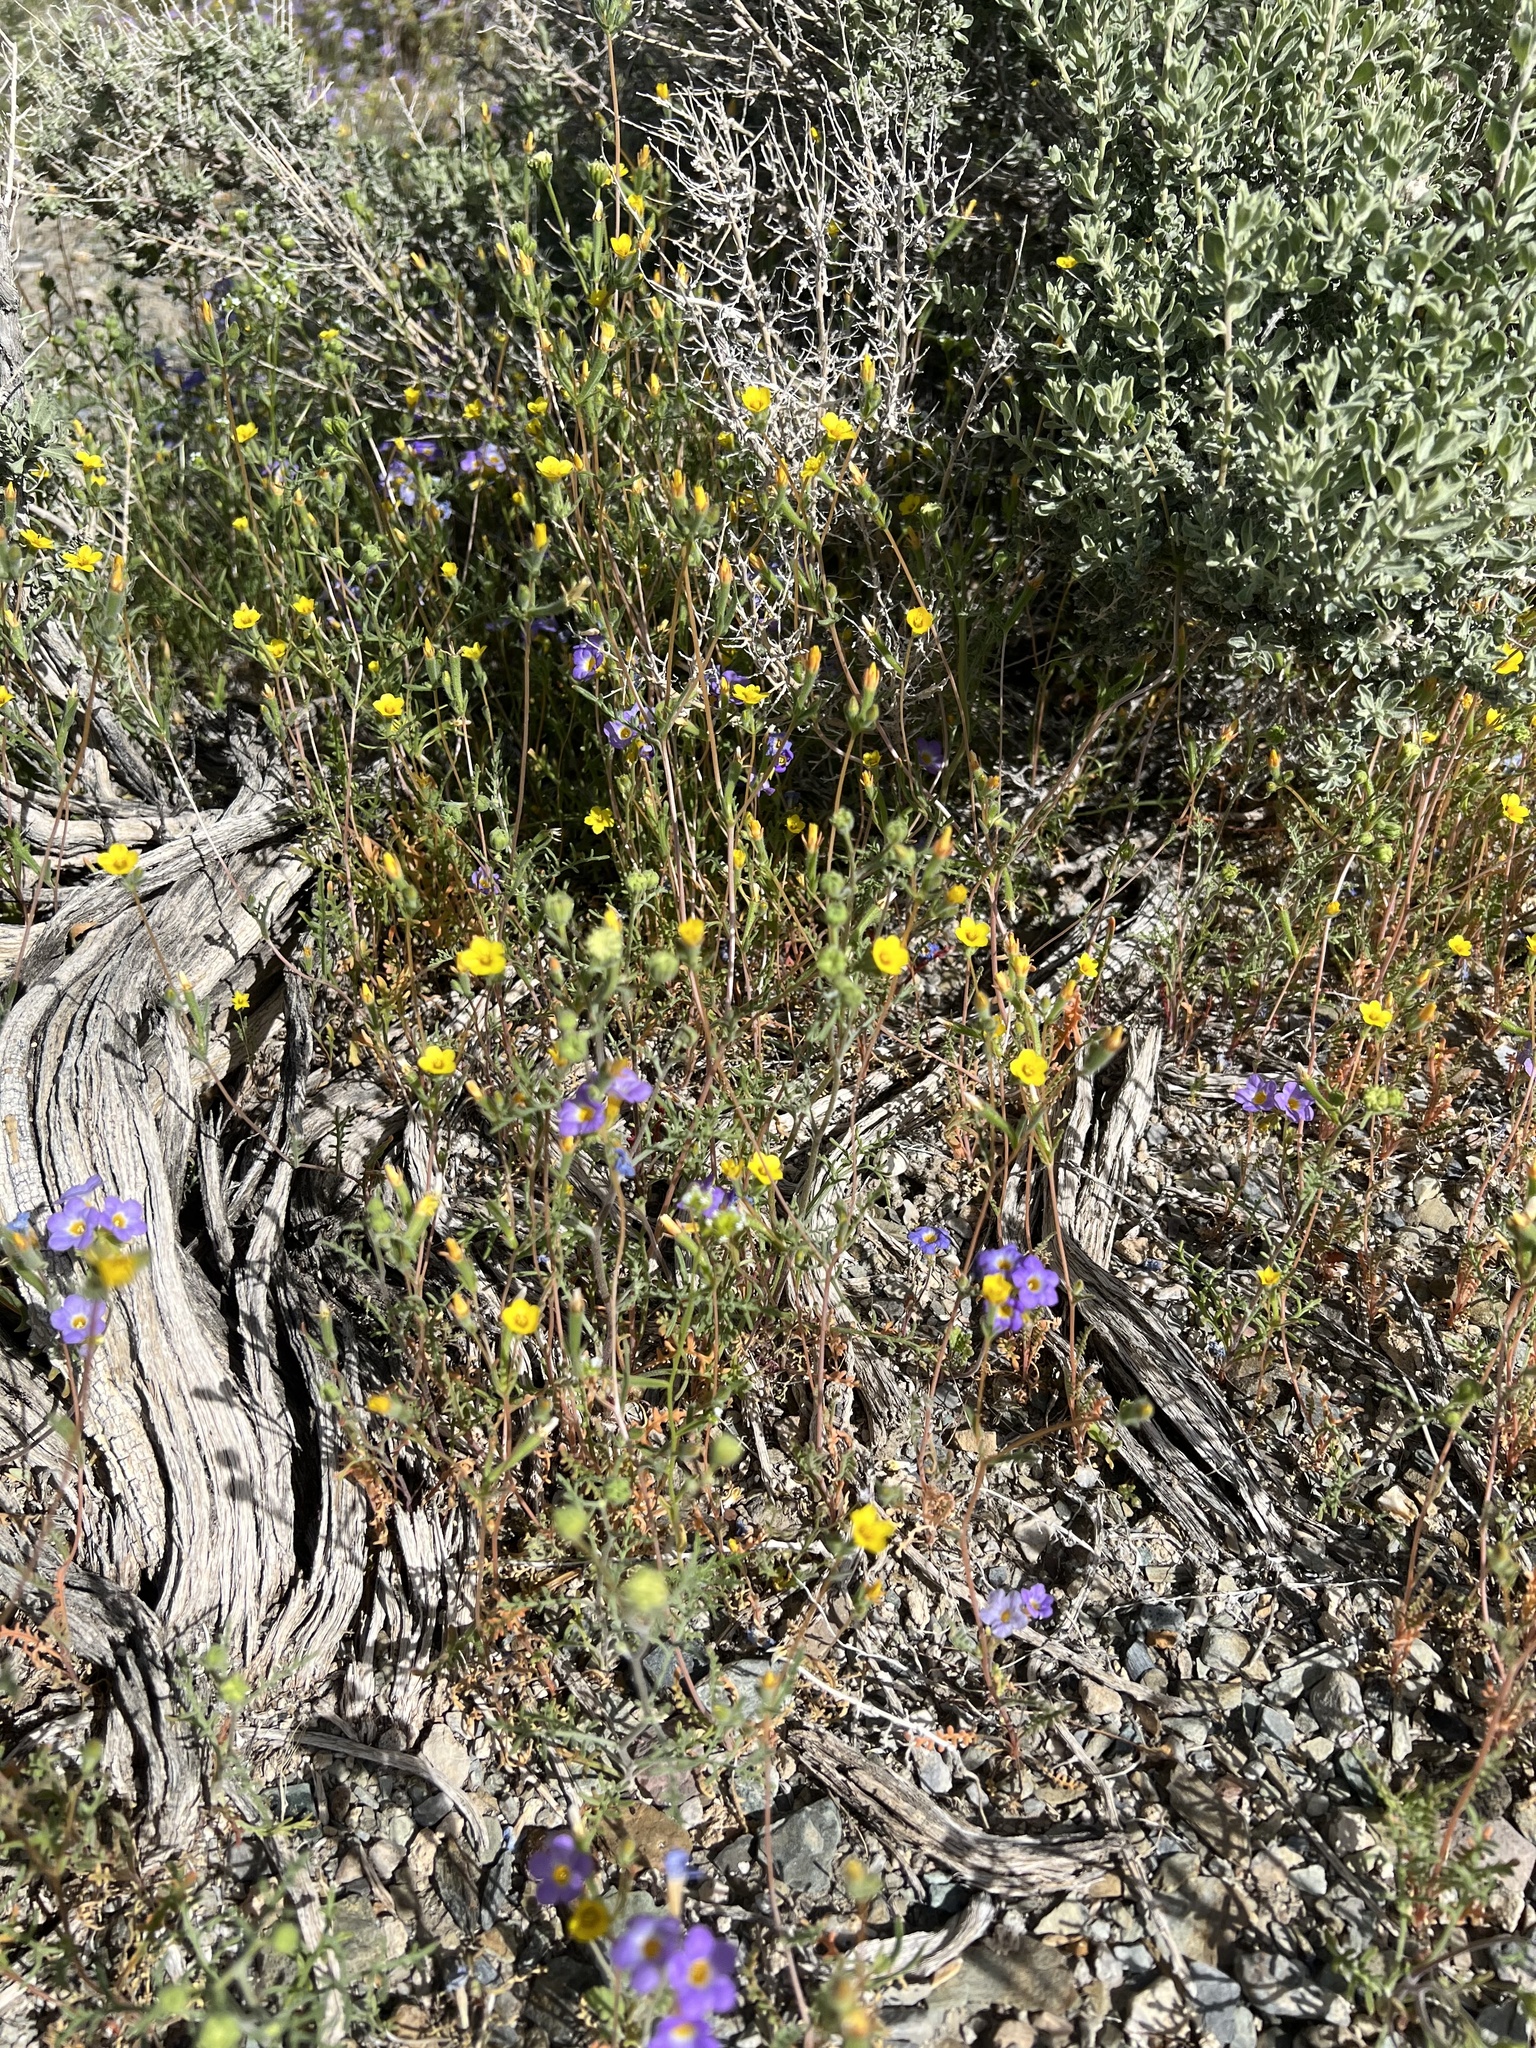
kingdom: Plantae
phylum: Tracheophyta
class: Magnoliopsida
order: Cornales
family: Loasaceae
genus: Mentzelia
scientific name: Mentzelia albicaulis
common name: White-stem blazingstar
